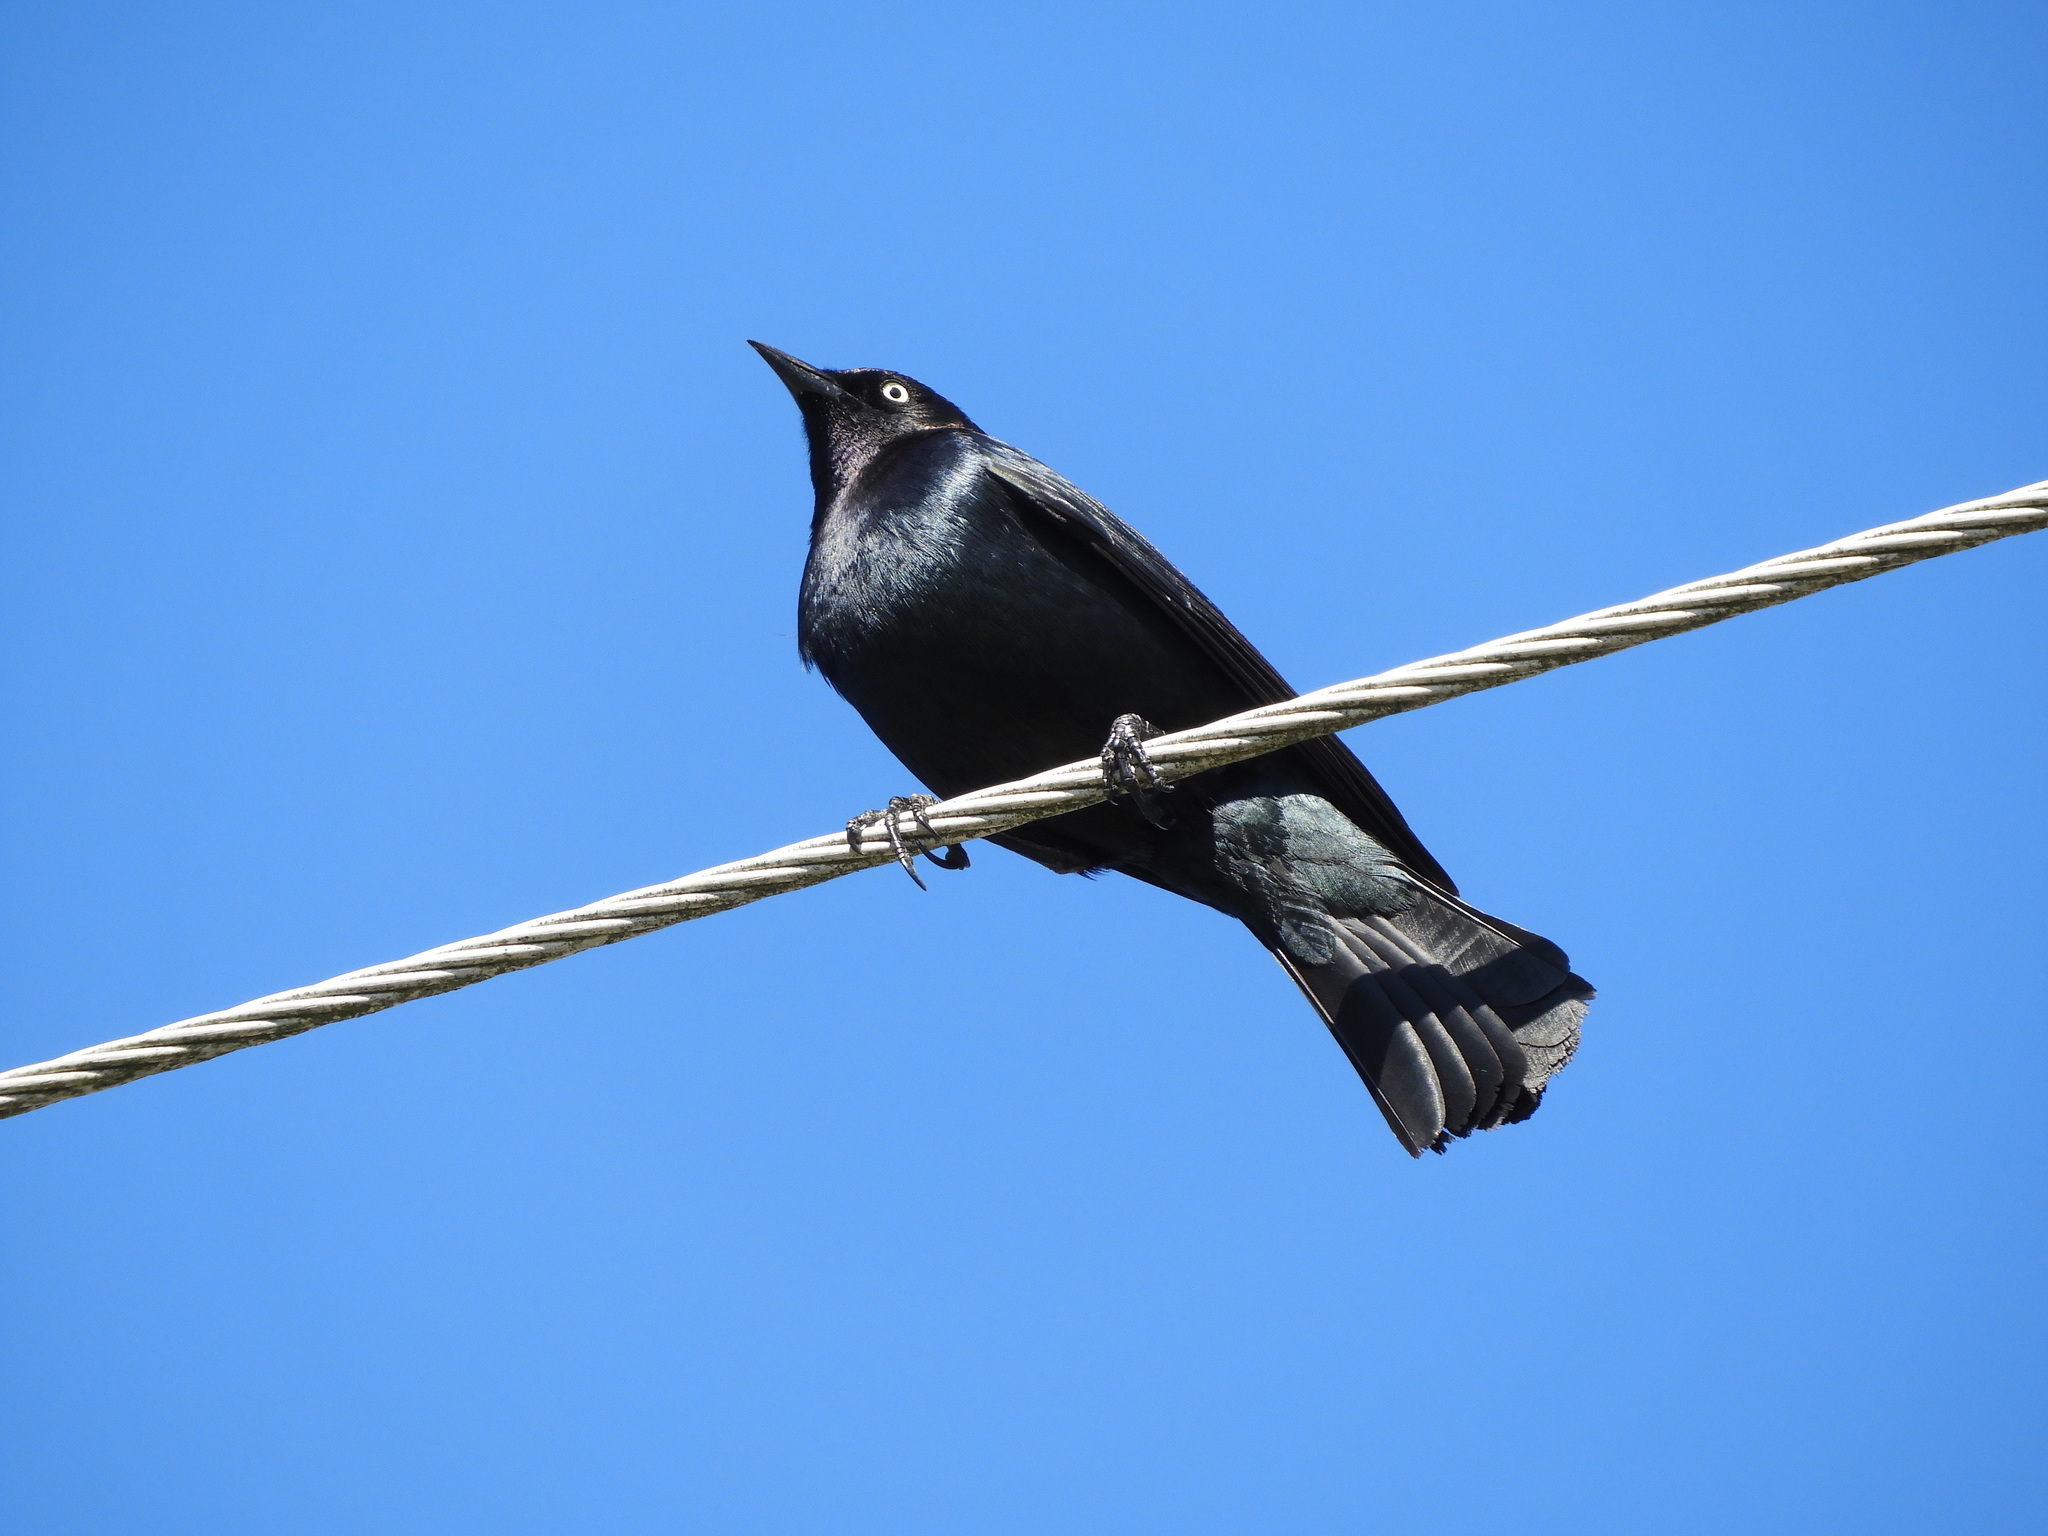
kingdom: Animalia
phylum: Chordata
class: Aves
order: Passeriformes
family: Icteridae
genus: Euphagus
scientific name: Euphagus cyanocephalus
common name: Brewer's blackbird
